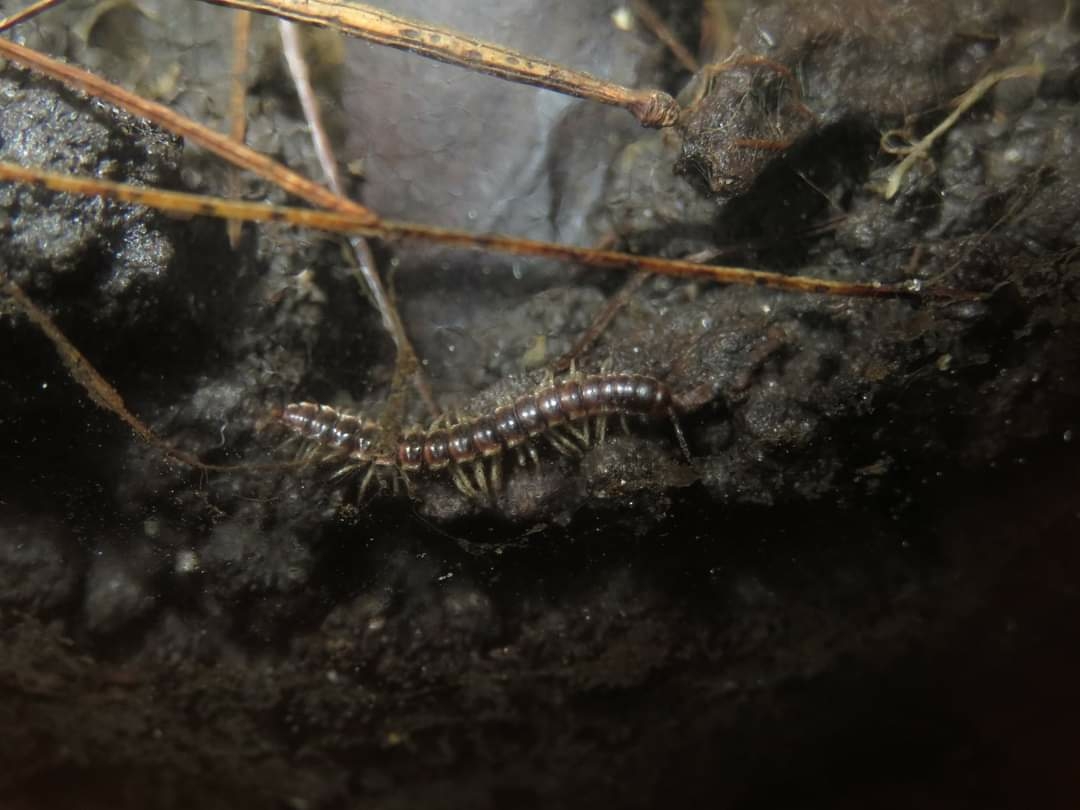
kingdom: Animalia
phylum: Arthropoda
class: Diplopoda
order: Polydesmida
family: Paradoxosomatidae
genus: Oxidus
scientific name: Oxidus gracilis
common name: Greenhouse millipede
